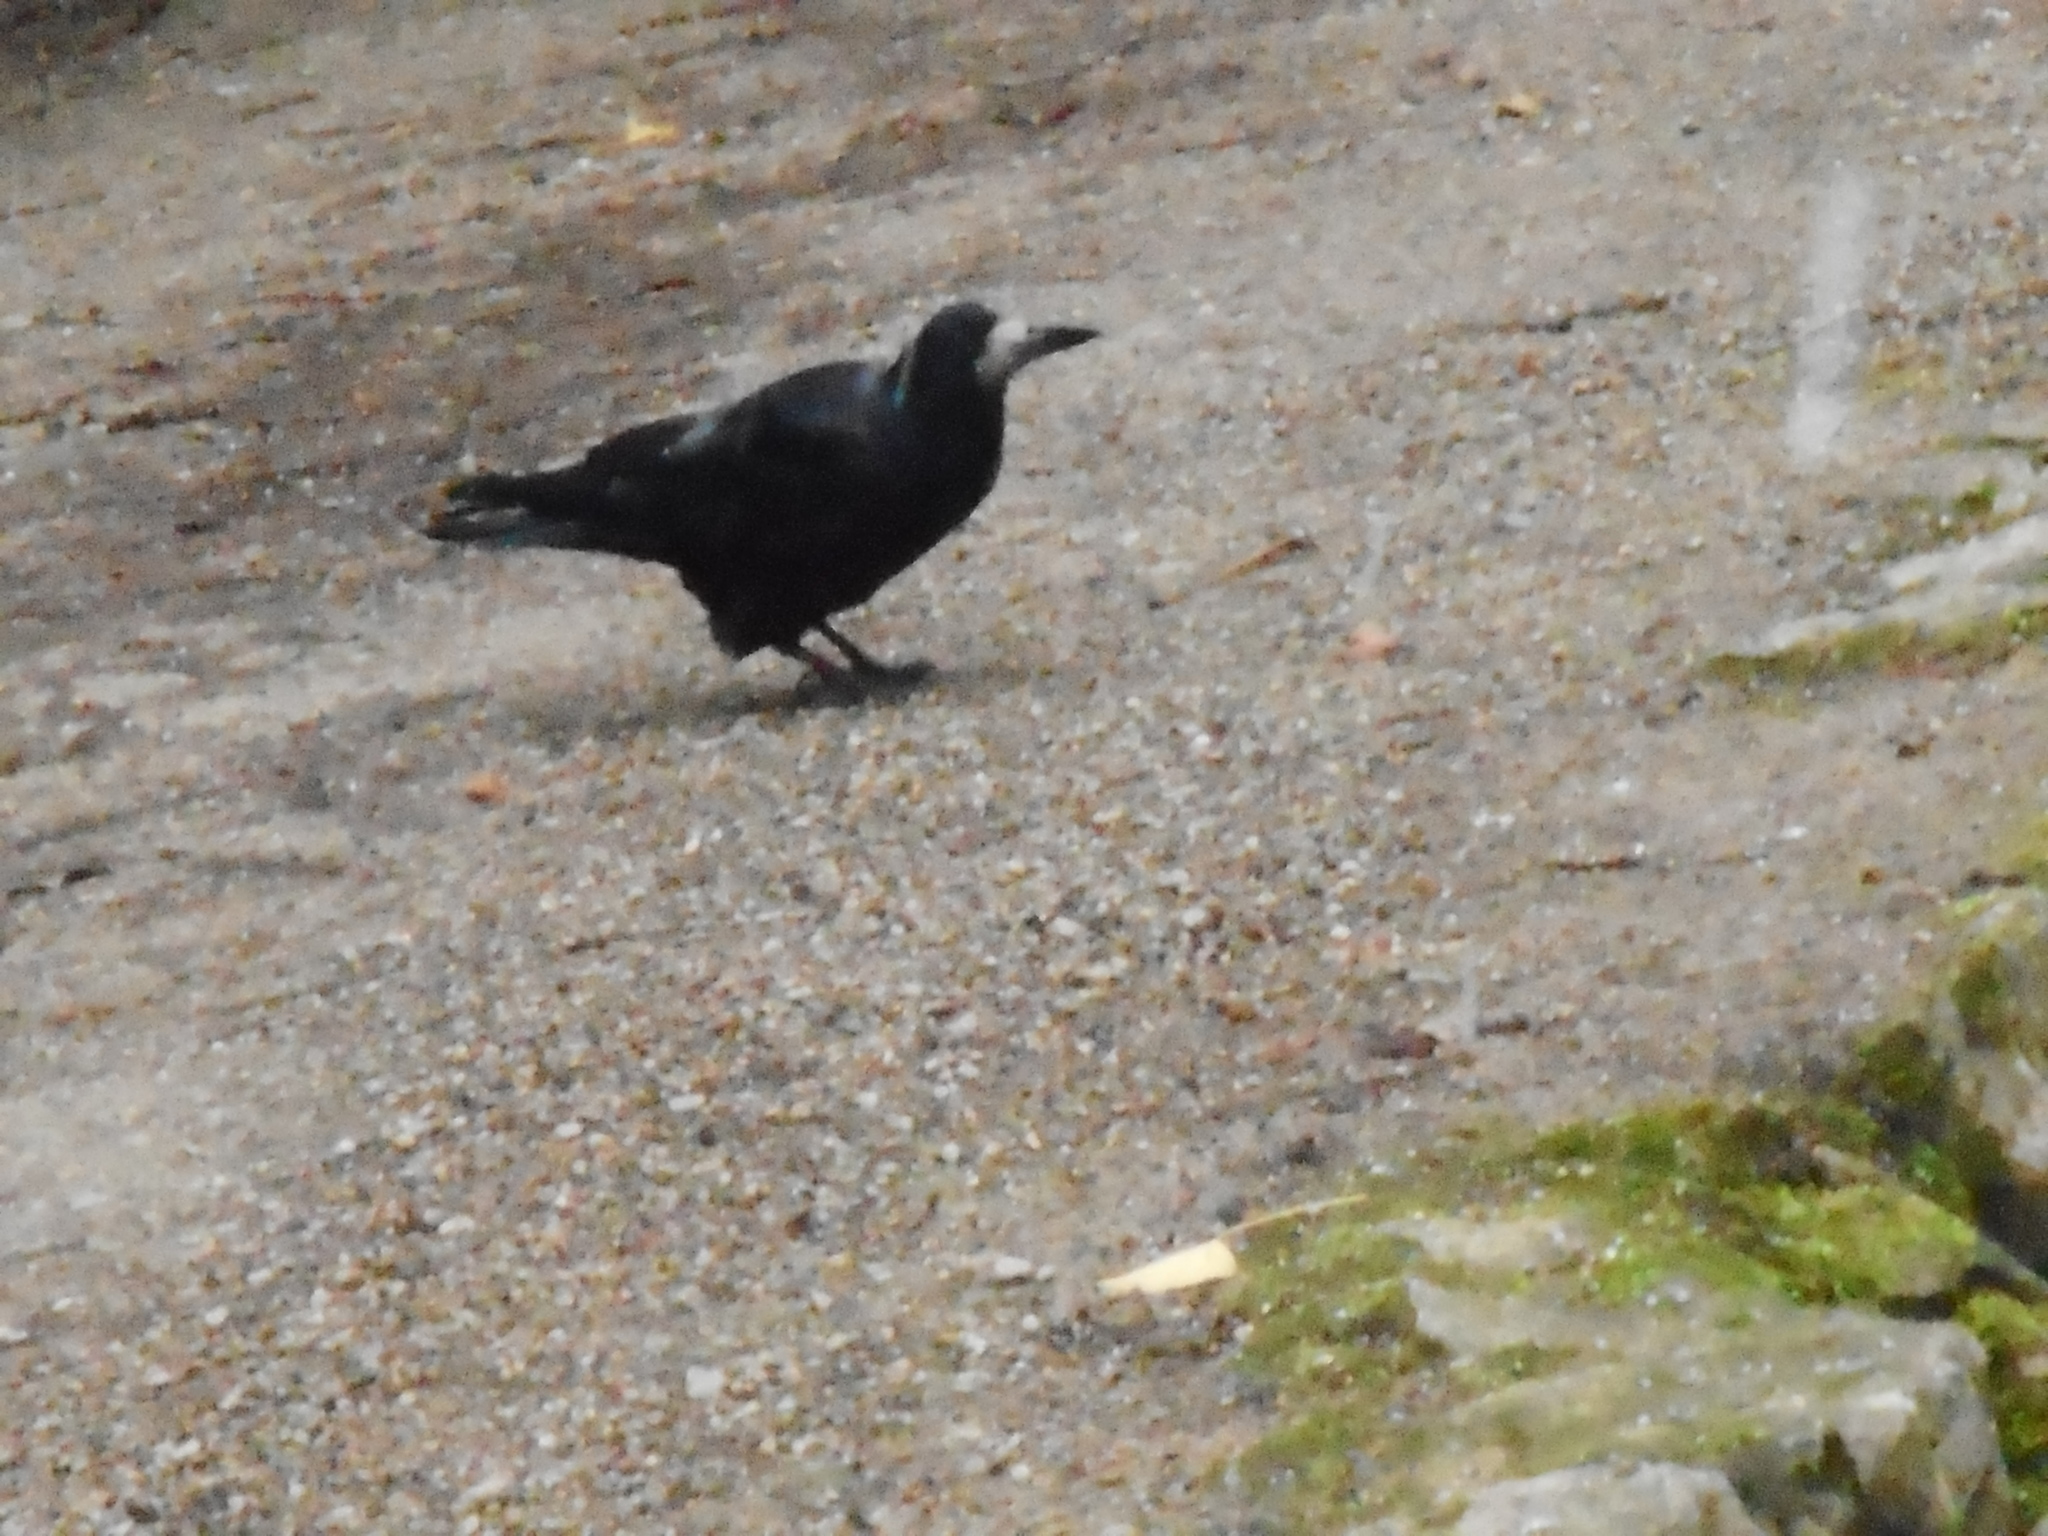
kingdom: Animalia
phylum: Chordata
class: Aves
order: Passeriformes
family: Corvidae
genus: Corvus
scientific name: Corvus frugilegus
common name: Rook
